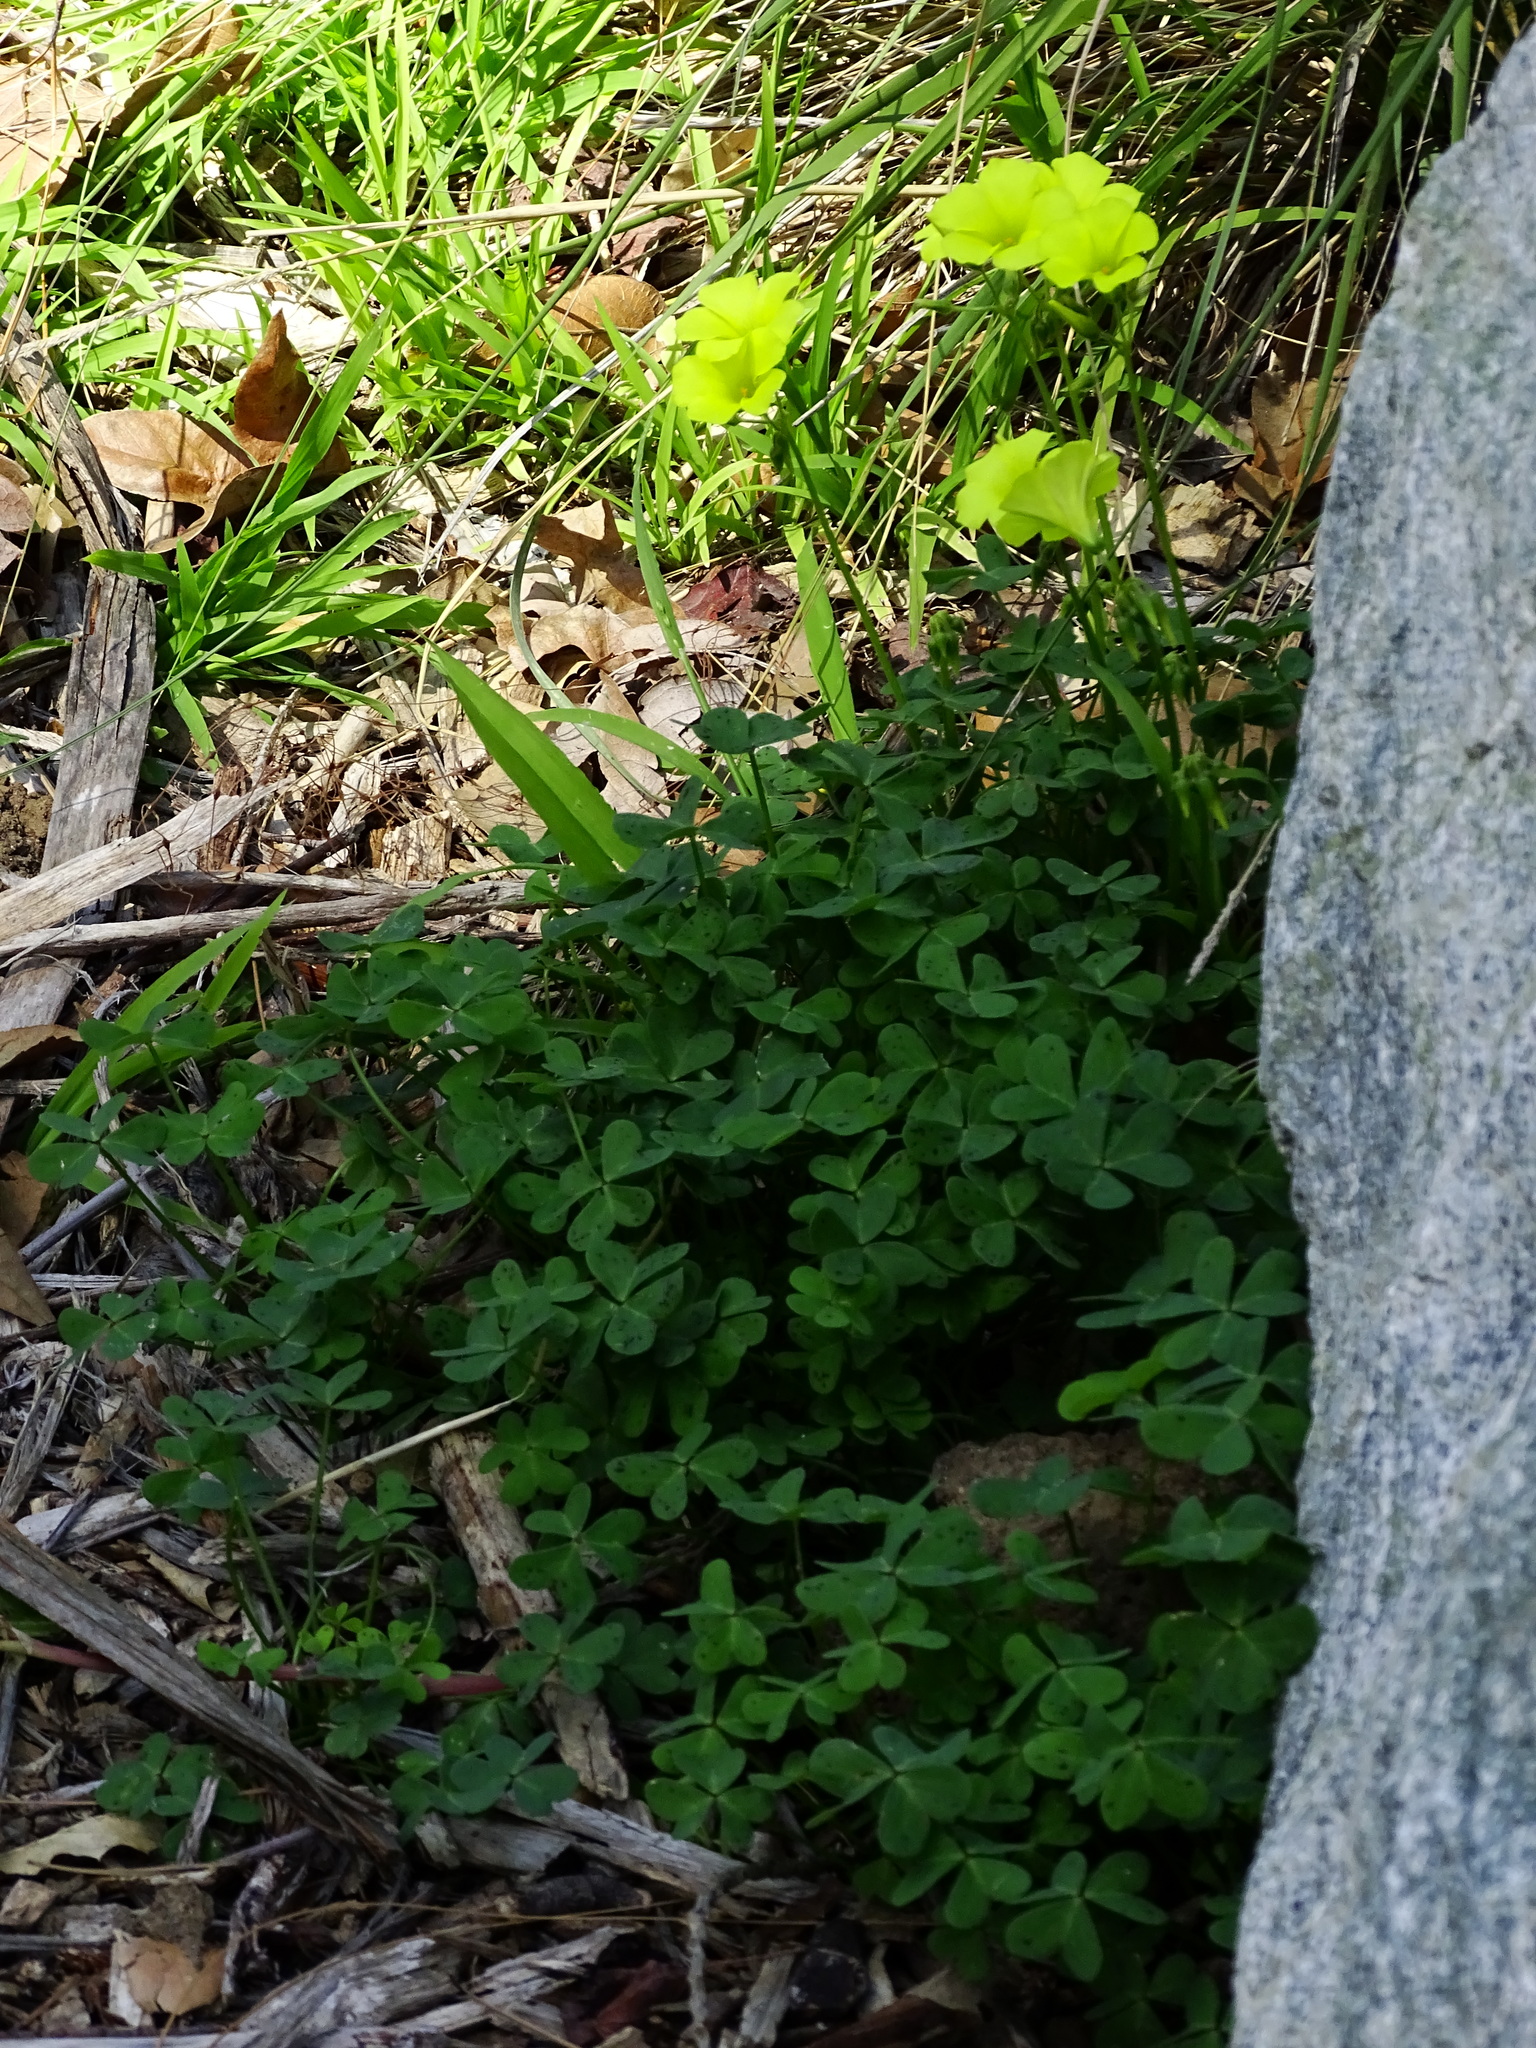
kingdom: Plantae
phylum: Tracheophyta
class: Magnoliopsida
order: Oxalidales
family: Oxalidaceae
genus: Oxalis
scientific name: Oxalis pes-caprae
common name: Bermuda-buttercup
